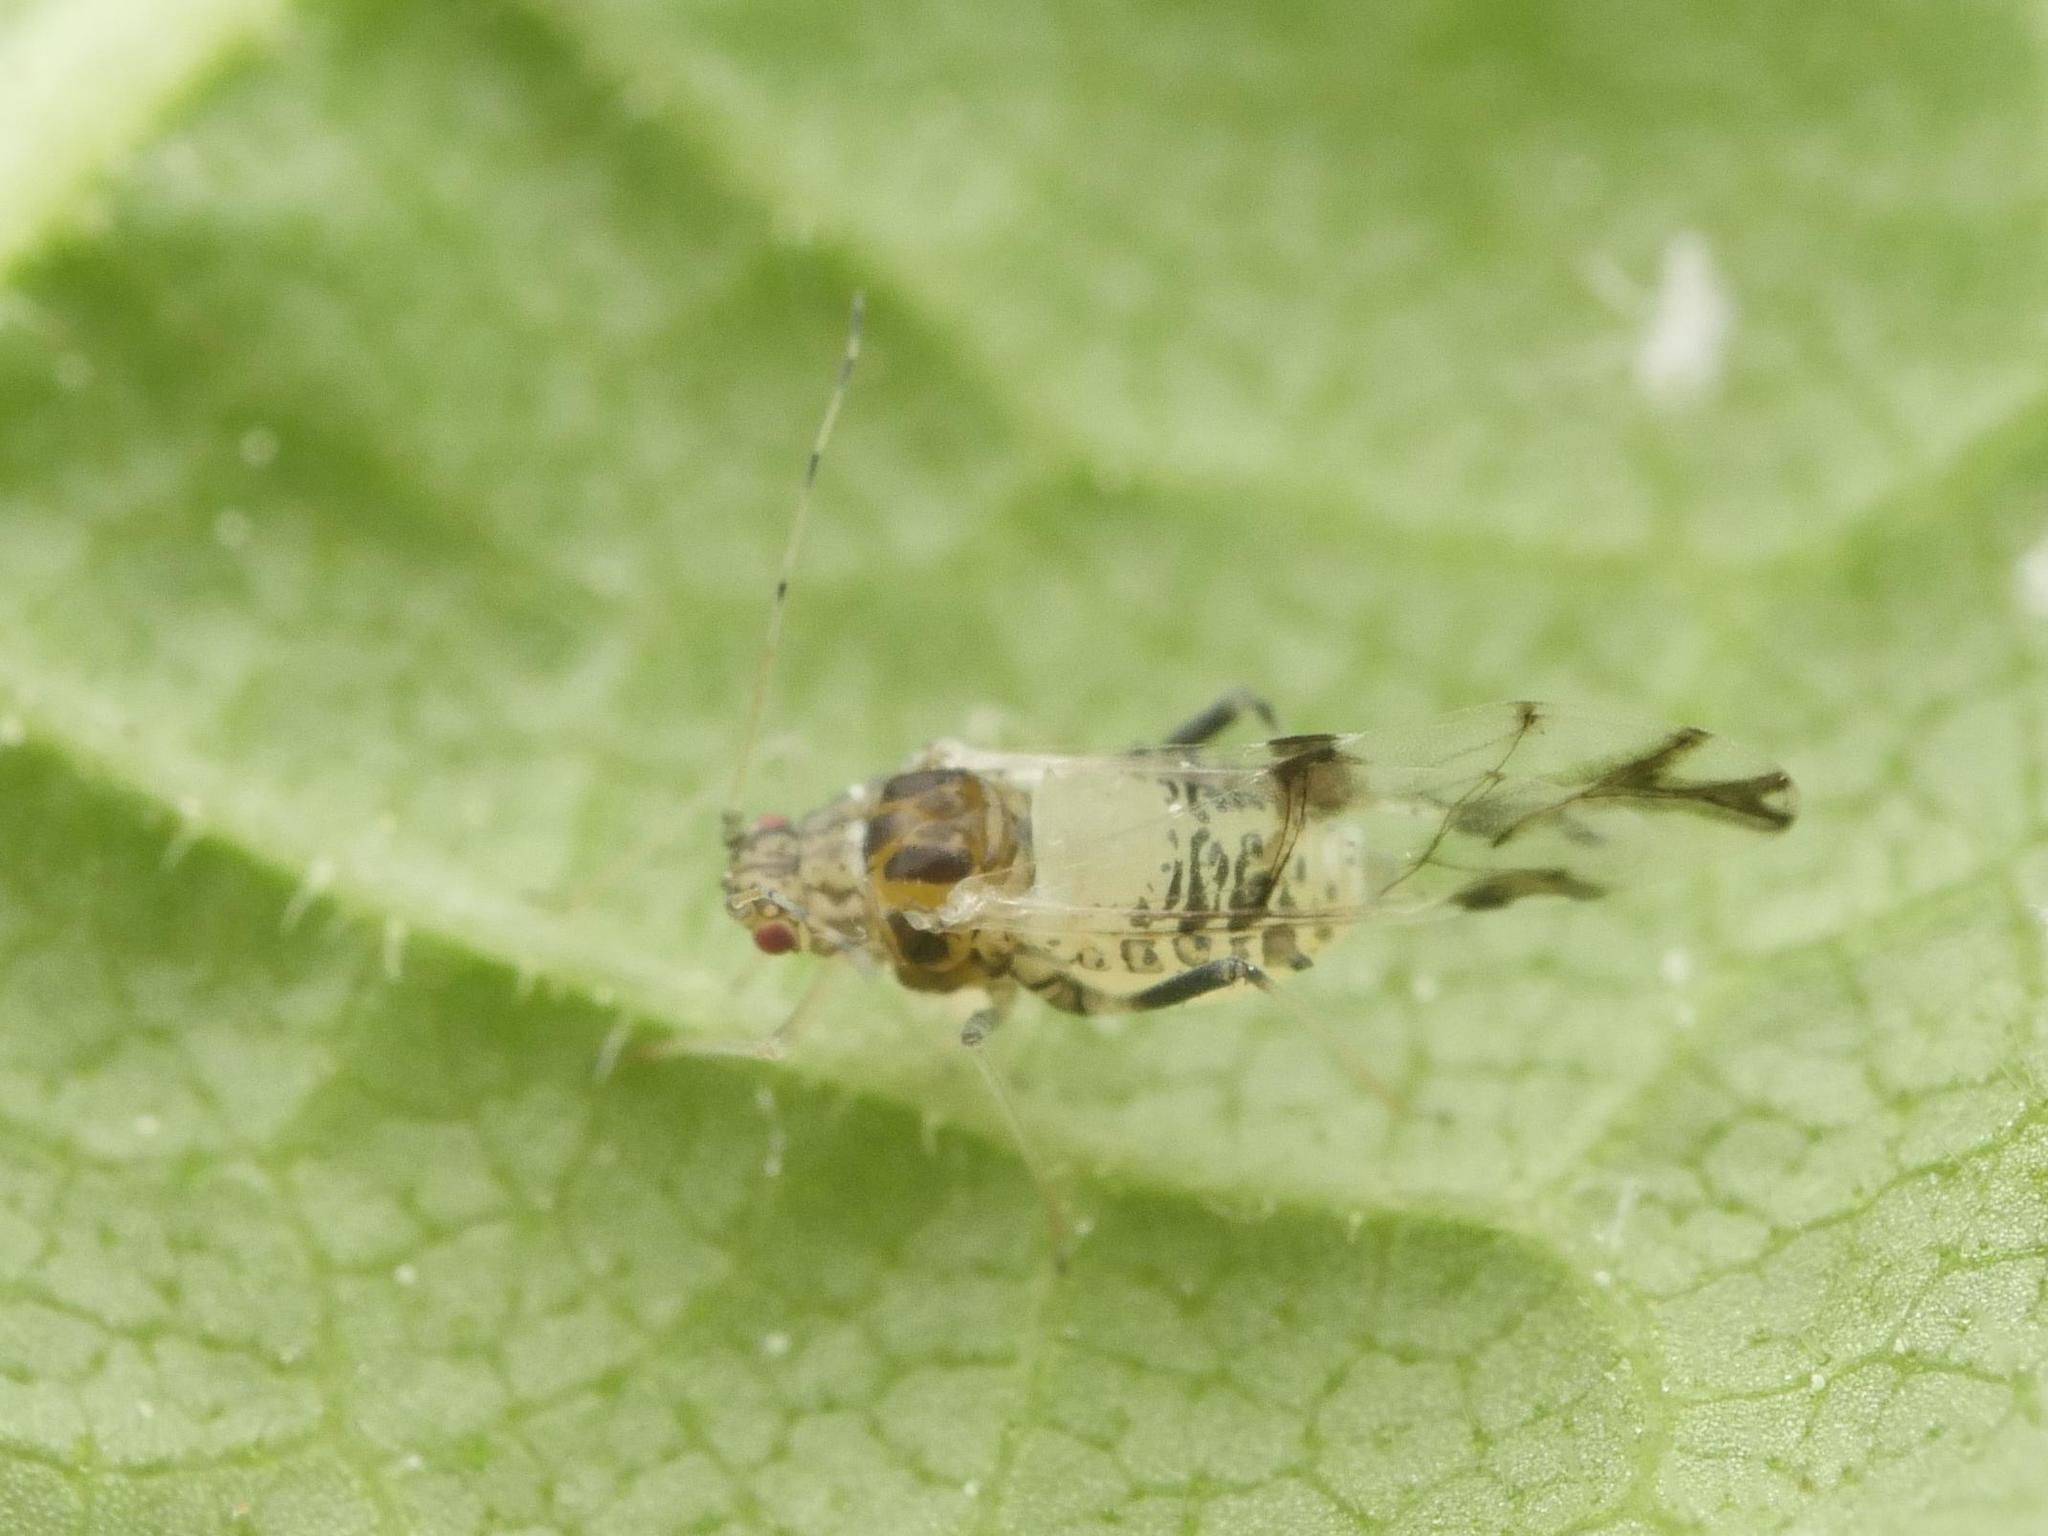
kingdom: Animalia
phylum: Arthropoda
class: Insecta
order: Hemiptera
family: Aphididae
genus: Tinocallis
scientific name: Tinocallis platani
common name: Elm aphid
